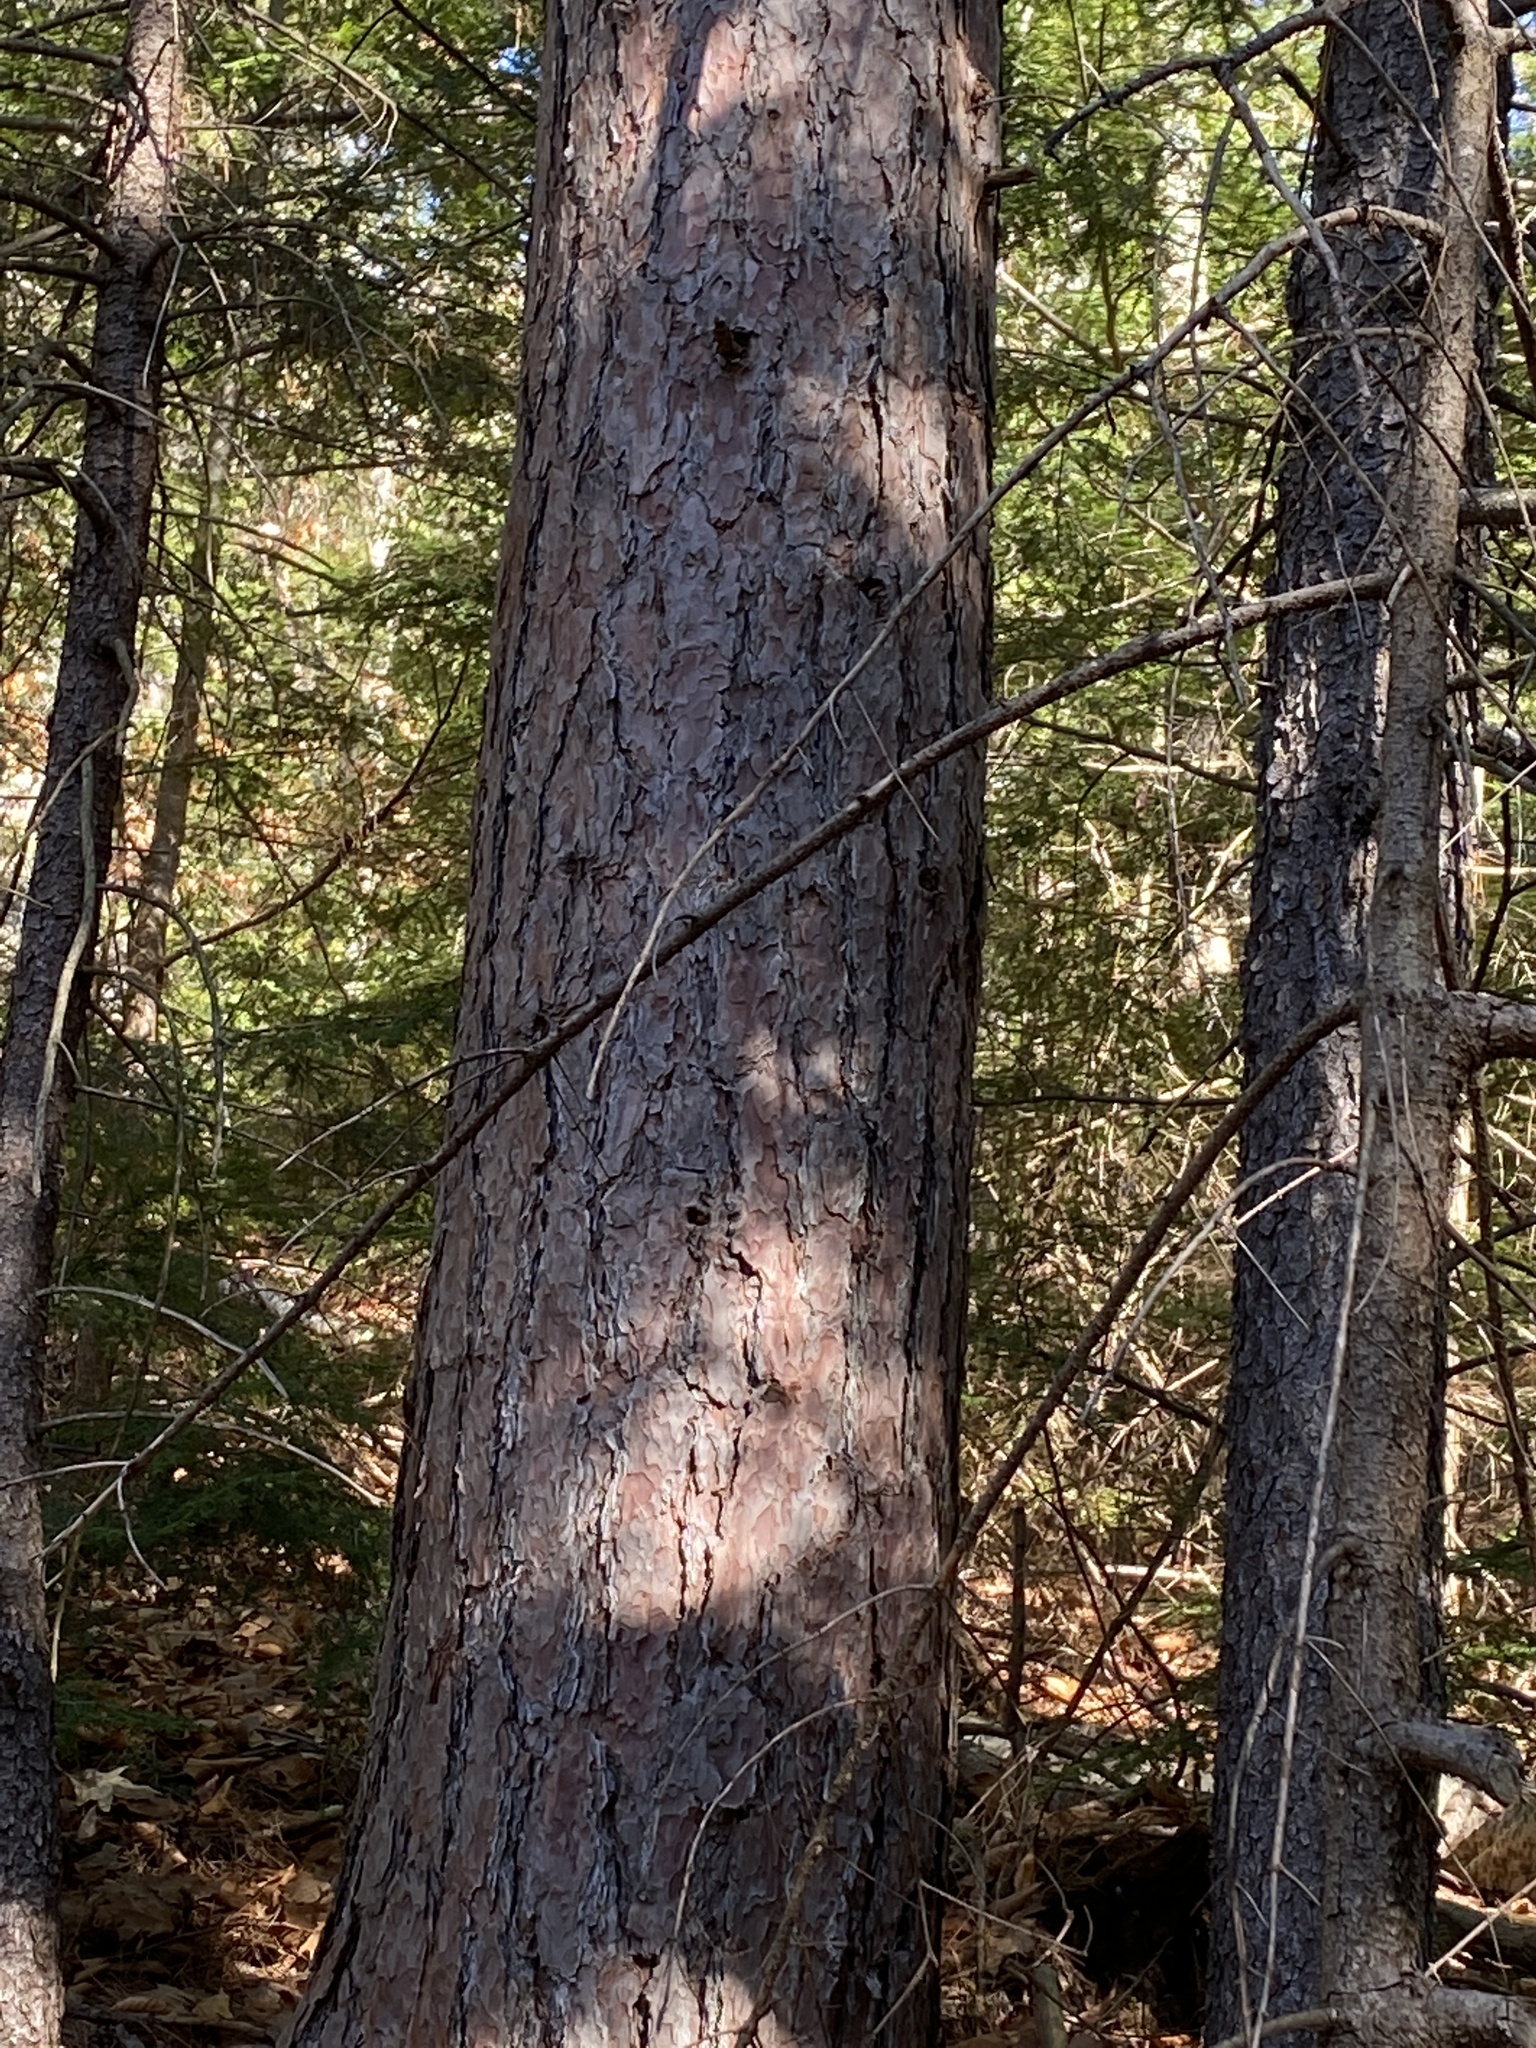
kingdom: Plantae
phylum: Tracheophyta
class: Pinopsida
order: Pinales
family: Pinaceae
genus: Pinus
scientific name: Pinus resinosa
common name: Norway pine
